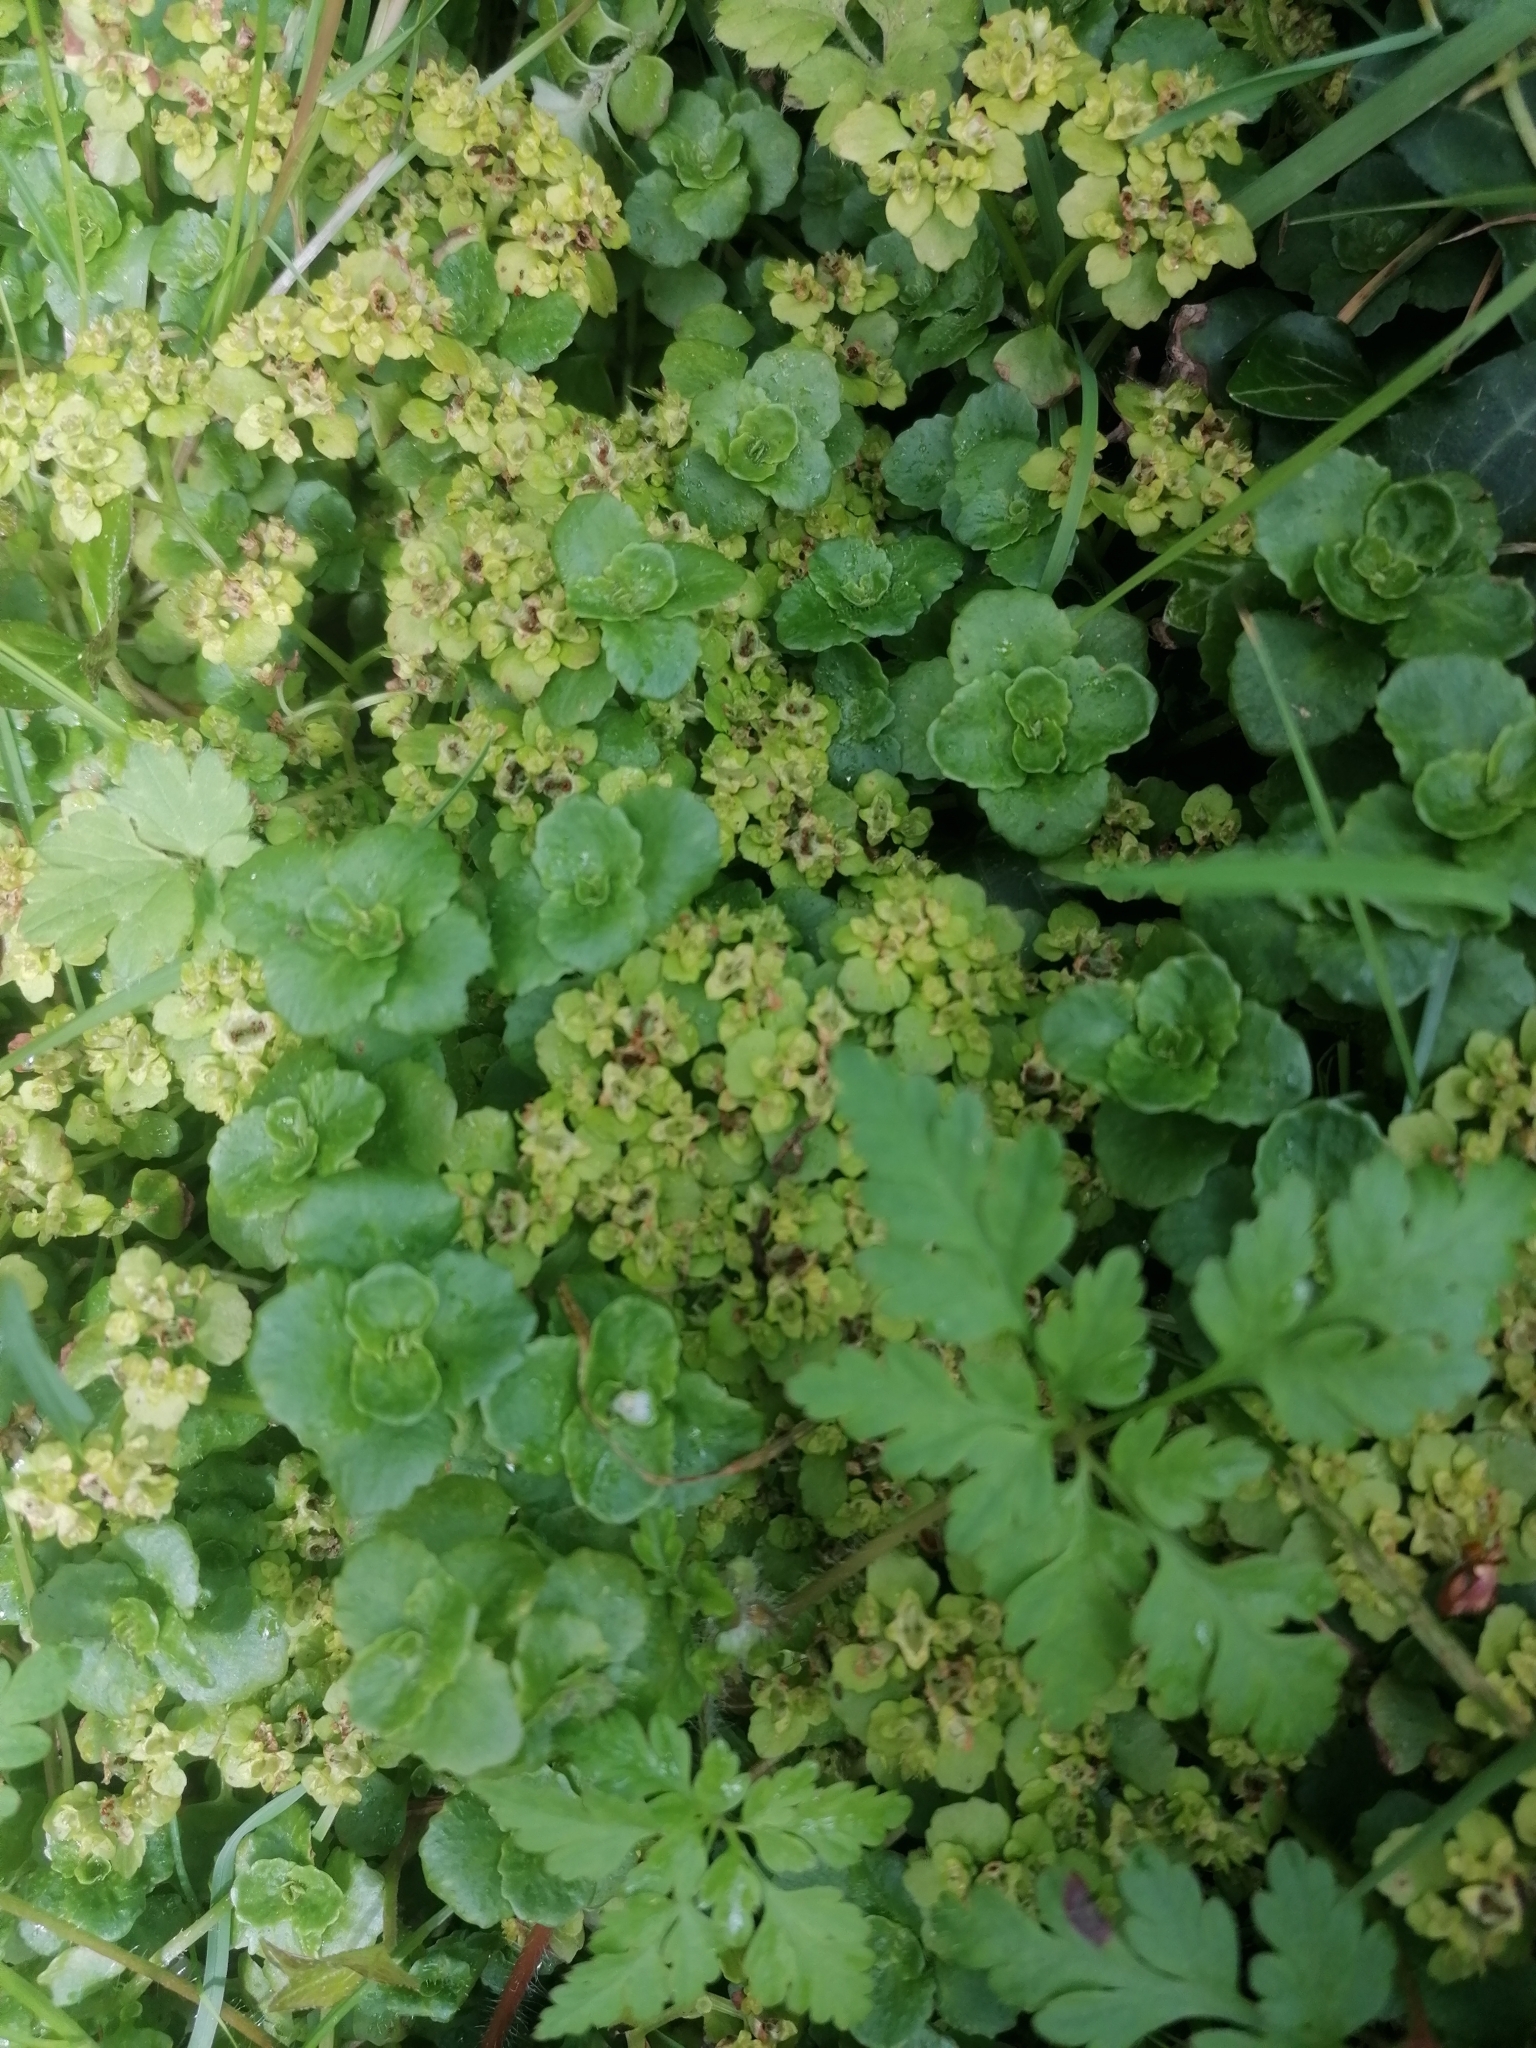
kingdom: Plantae
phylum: Tracheophyta
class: Magnoliopsida
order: Saxifragales
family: Saxifragaceae
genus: Chrysosplenium
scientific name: Chrysosplenium oppositifolium
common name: Opposite-leaved golden-saxifrage
